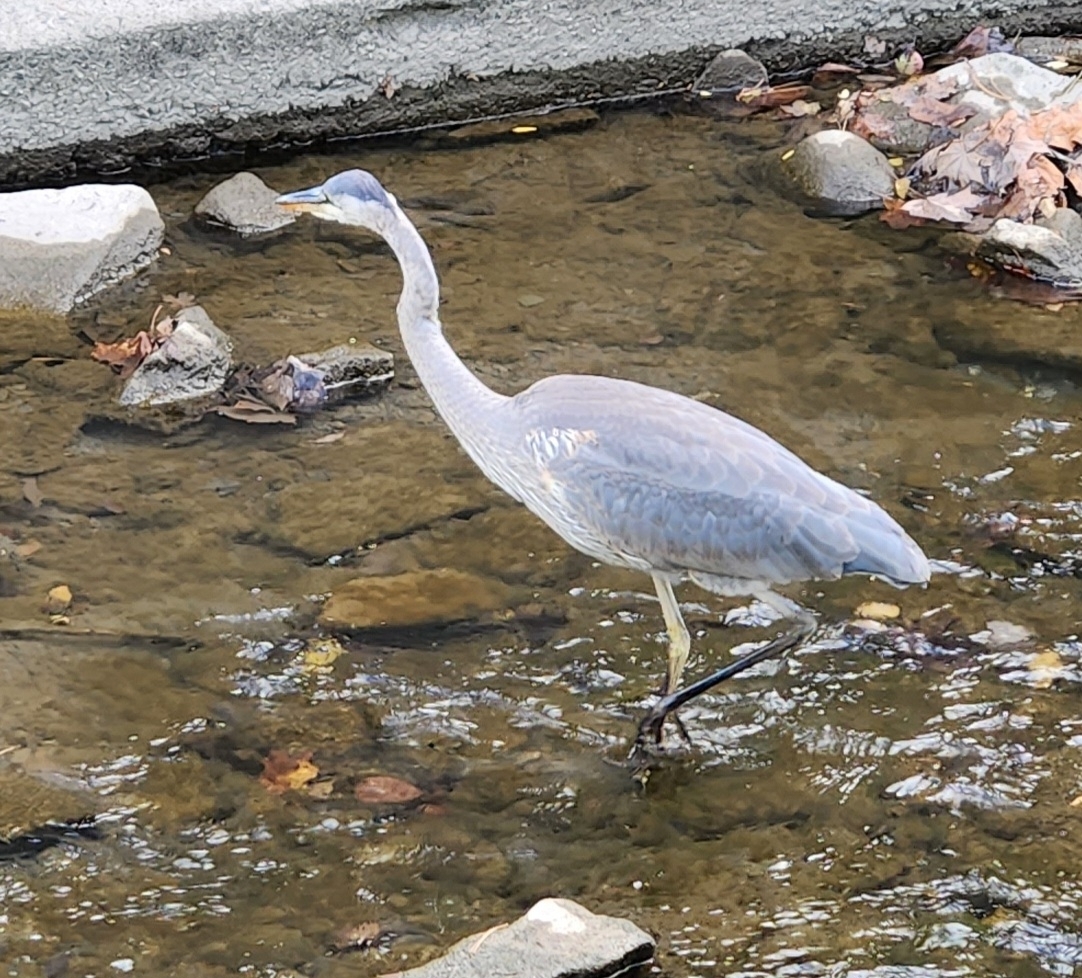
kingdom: Animalia
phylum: Chordata
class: Aves
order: Pelecaniformes
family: Ardeidae
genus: Ardea
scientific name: Ardea herodias
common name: Great blue heron
